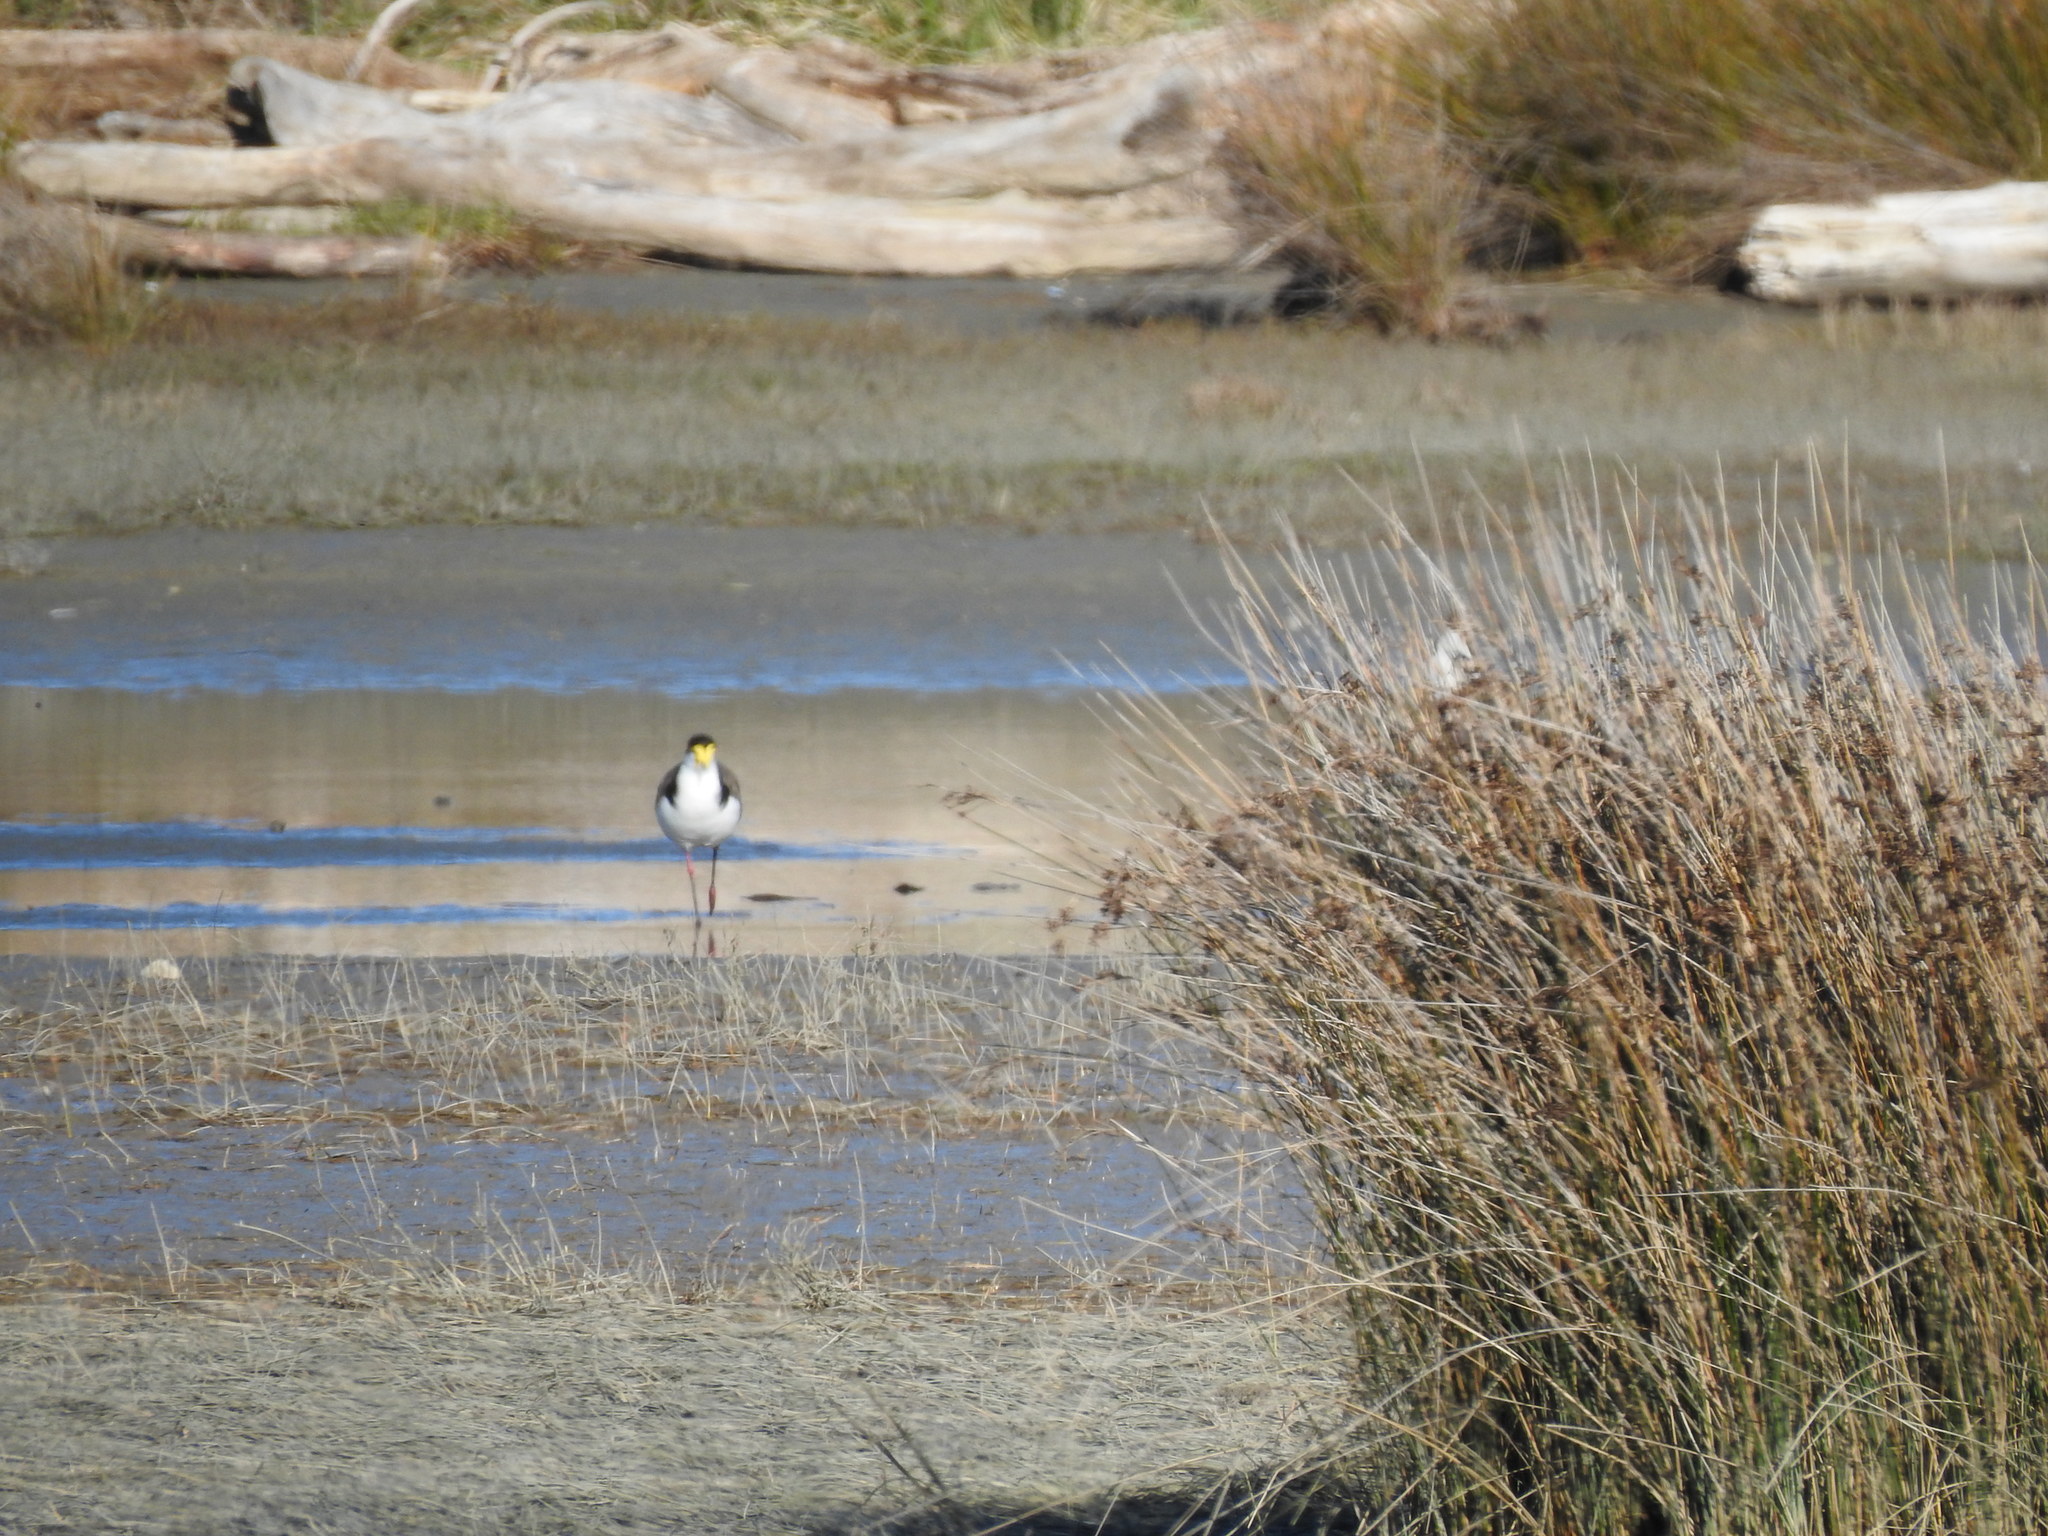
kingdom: Animalia
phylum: Chordata
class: Aves
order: Charadriiformes
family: Charadriidae
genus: Vanellus
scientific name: Vanellus miles
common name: Masked lapwing
